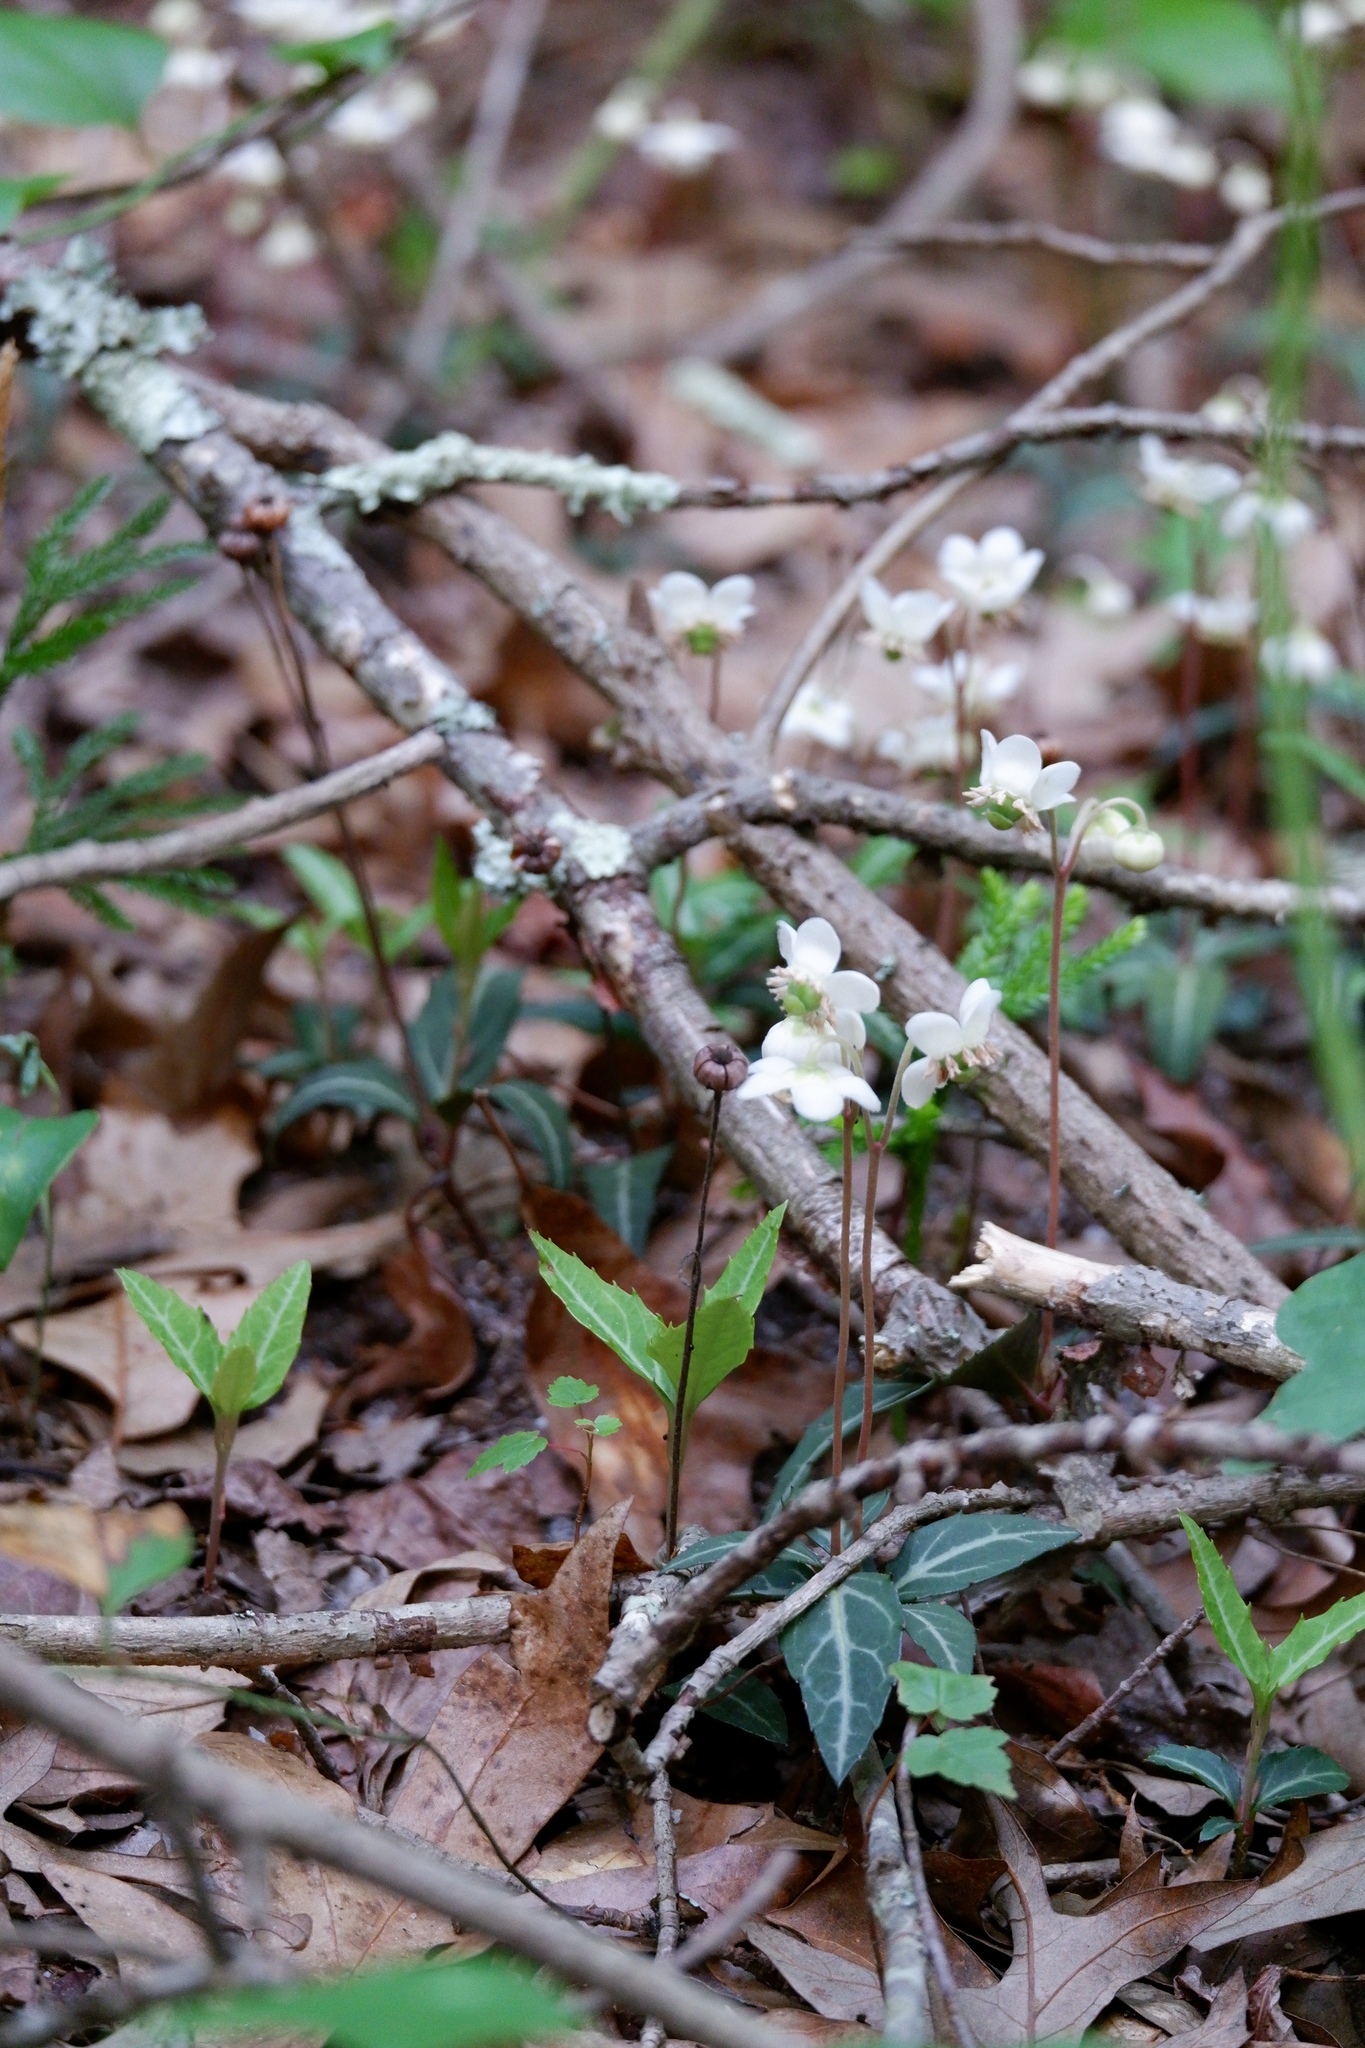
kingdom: Plantae
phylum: Tracheophyta
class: Magnoliopsida
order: Ericales
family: Ericaceae
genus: Chimaphila
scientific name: Chimaphila maculata
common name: Spotted pipsissewa
